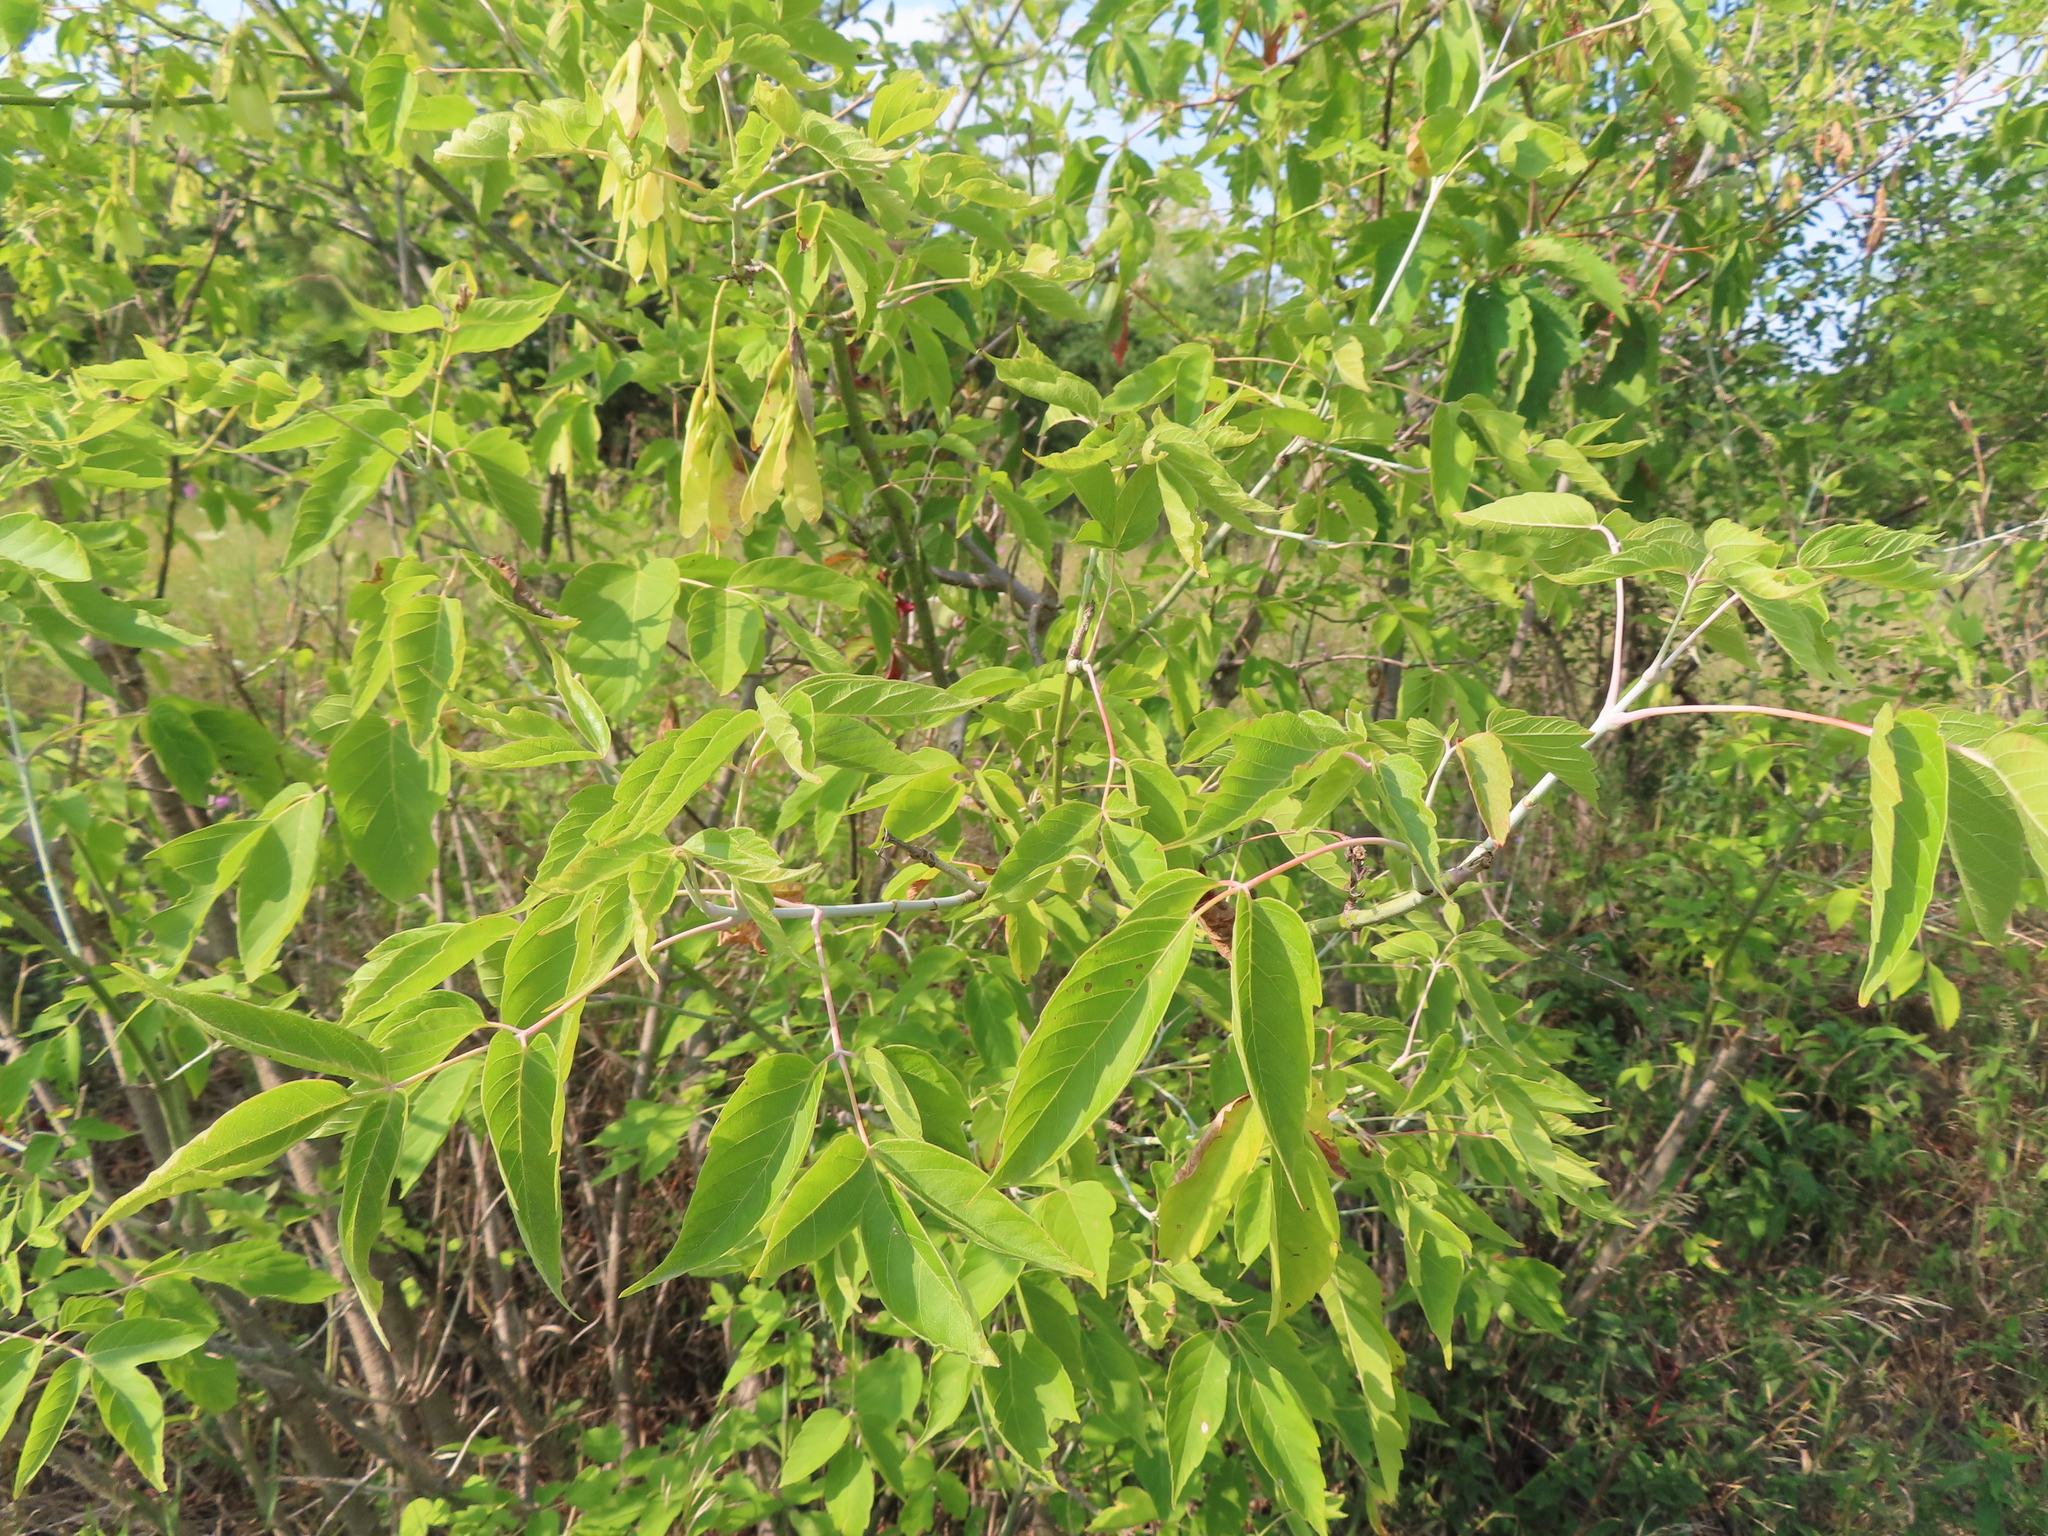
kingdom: Plantae
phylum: Tracheophyta
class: Magnoliopsida
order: Sapindales
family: Sapindaceae
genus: Acer
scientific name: Acer negundo
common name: Ashleaf maple
